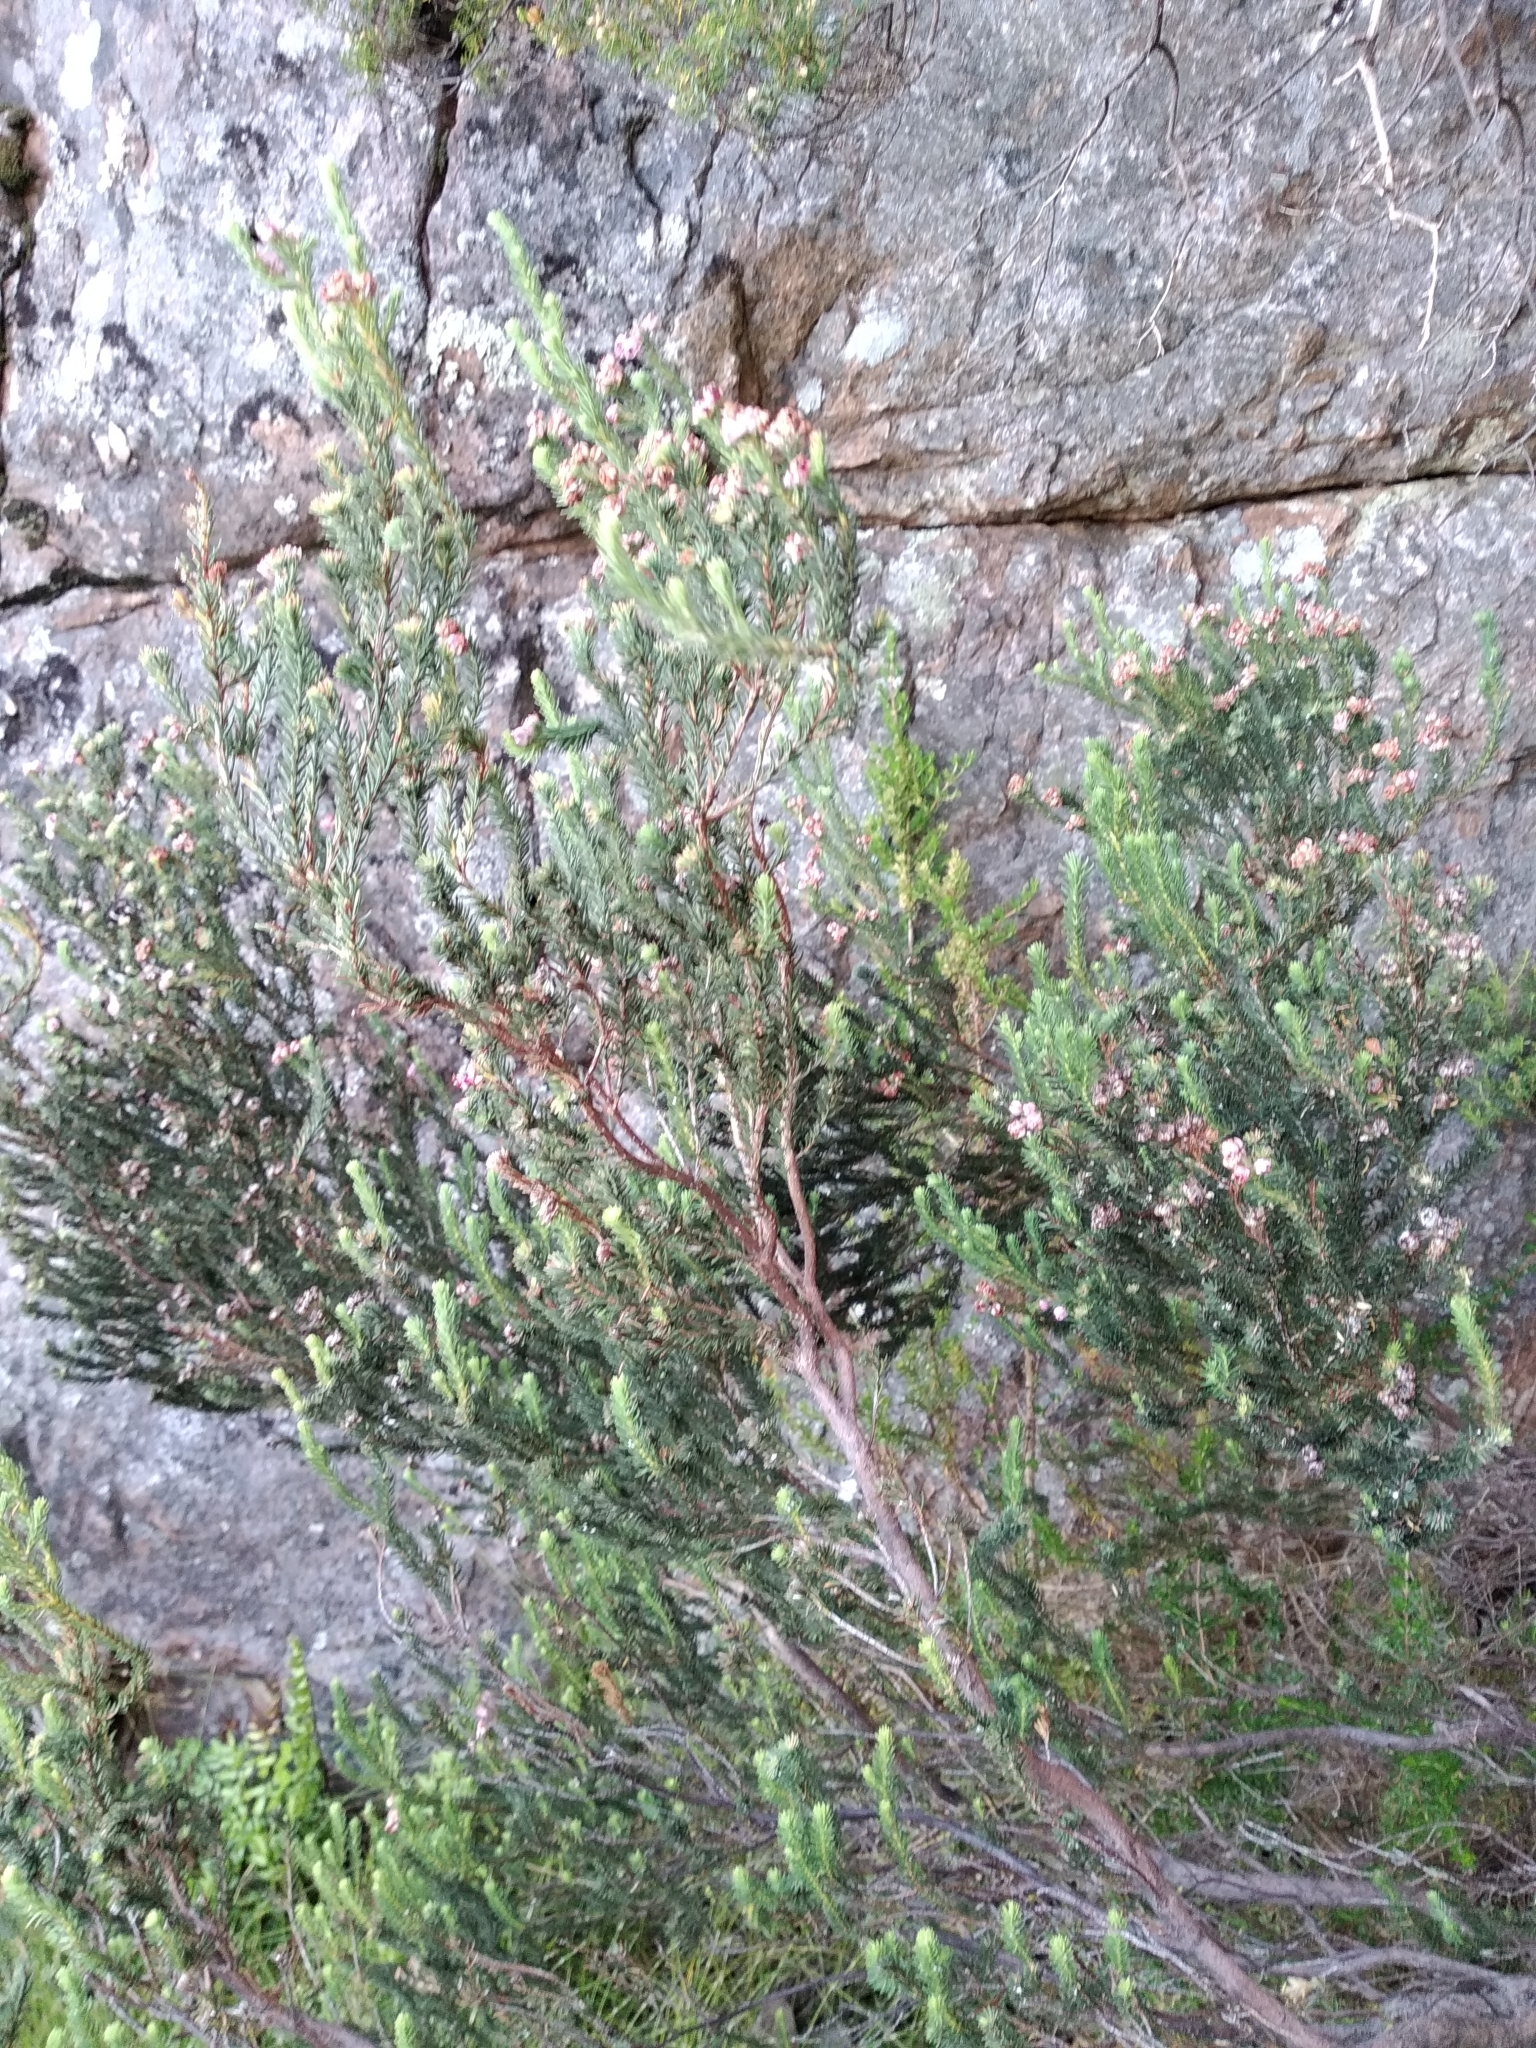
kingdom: Plantae
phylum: Tracheophyta
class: Magnoliopsida
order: Ericales
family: Ericaceae
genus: Erica
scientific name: Erica baccans
